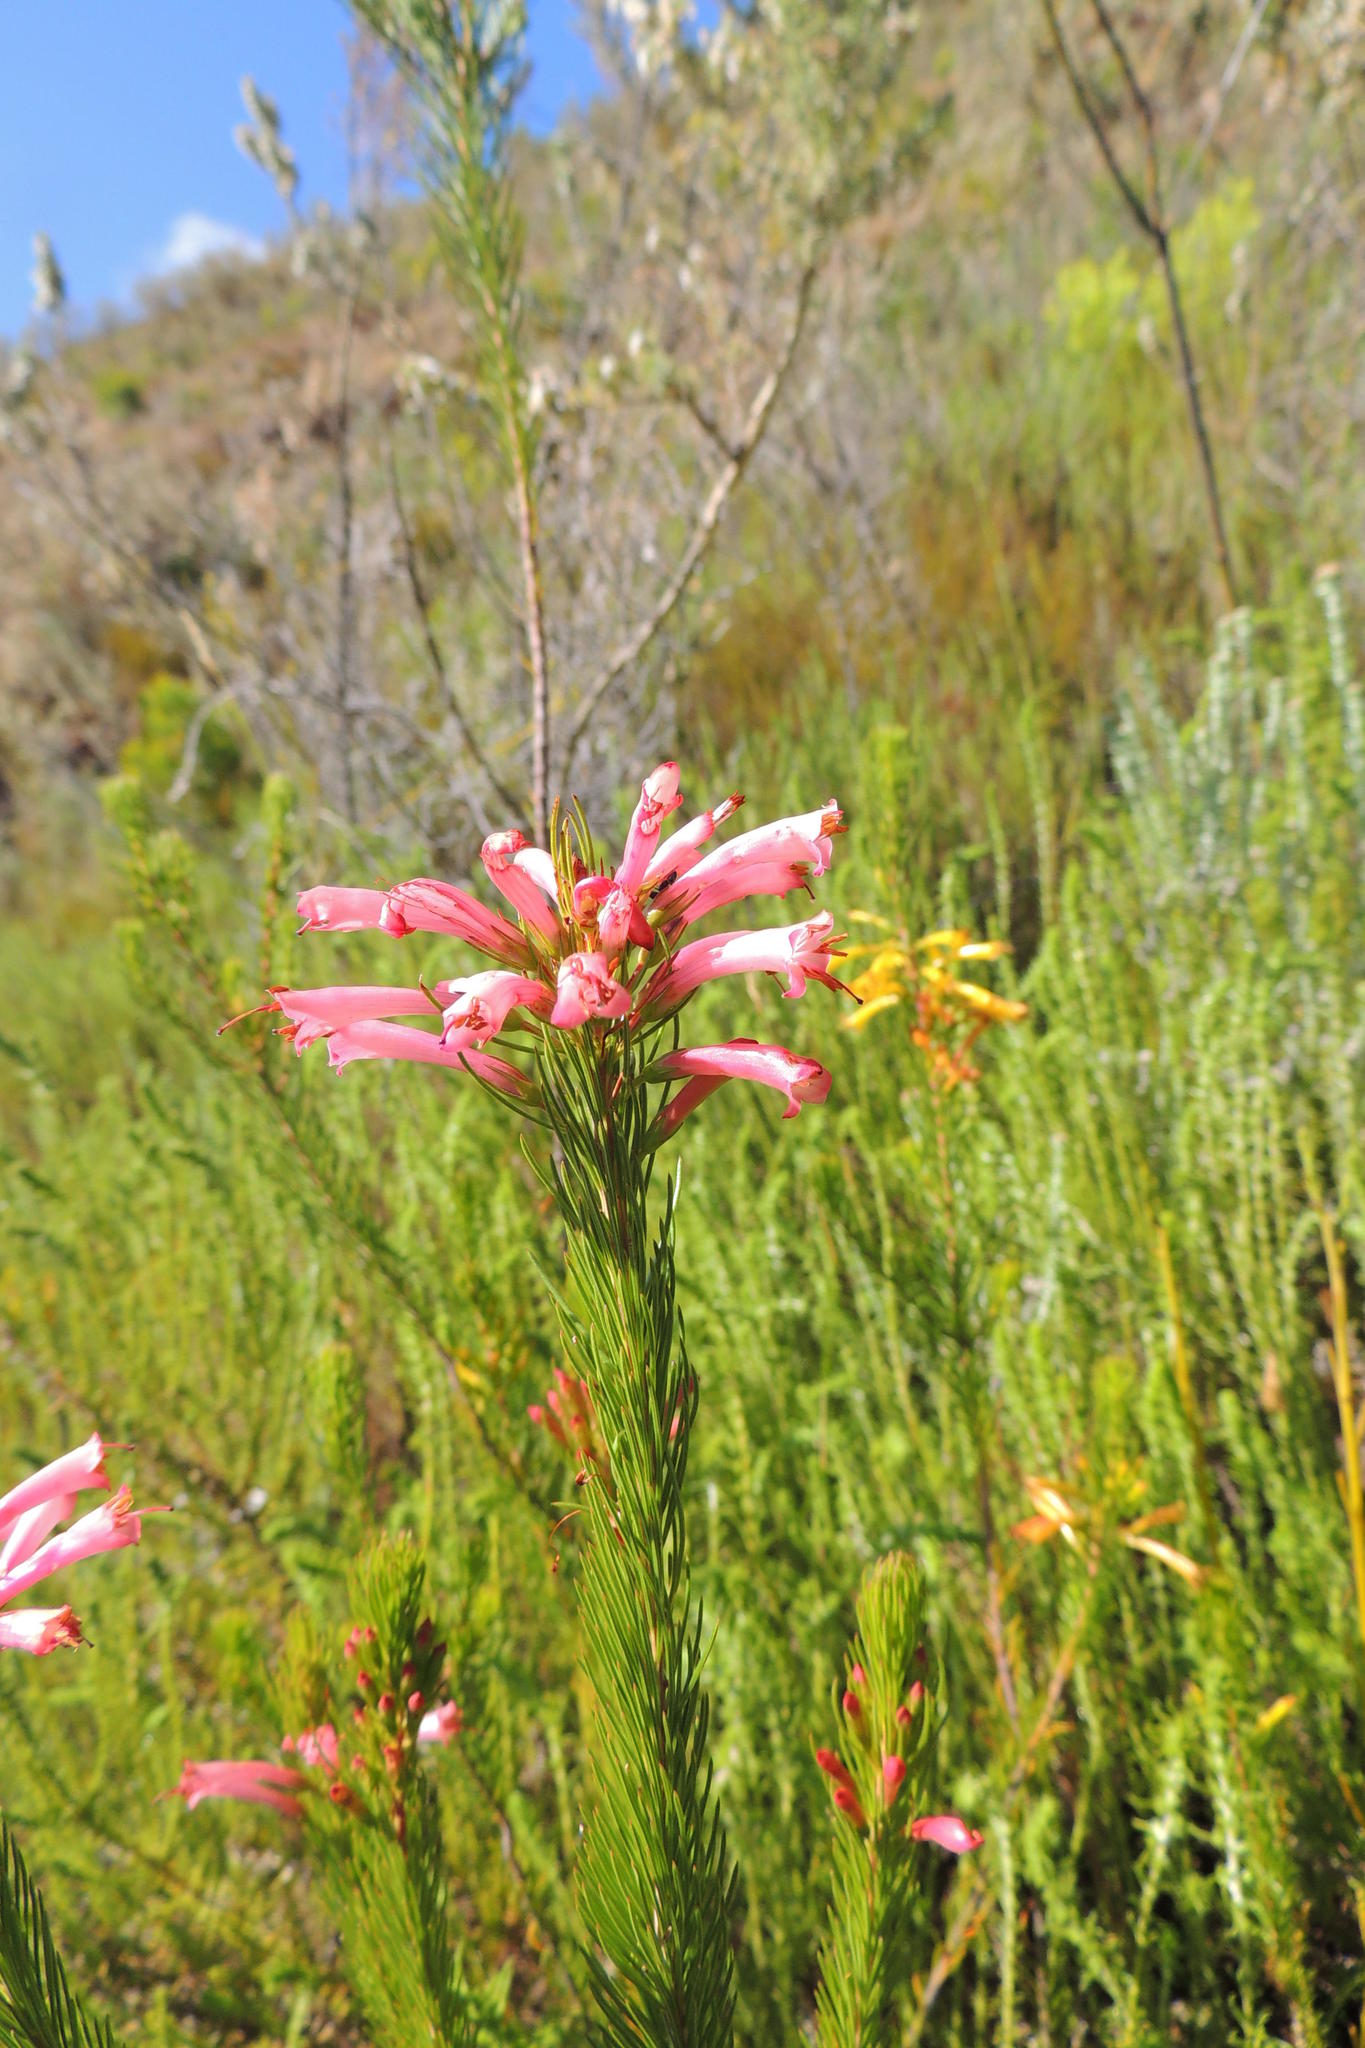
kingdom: Plantae
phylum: Tracheophyta
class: Magnoliopsida
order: Ericales
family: Ericaceae
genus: Erica
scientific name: Erica vestita
